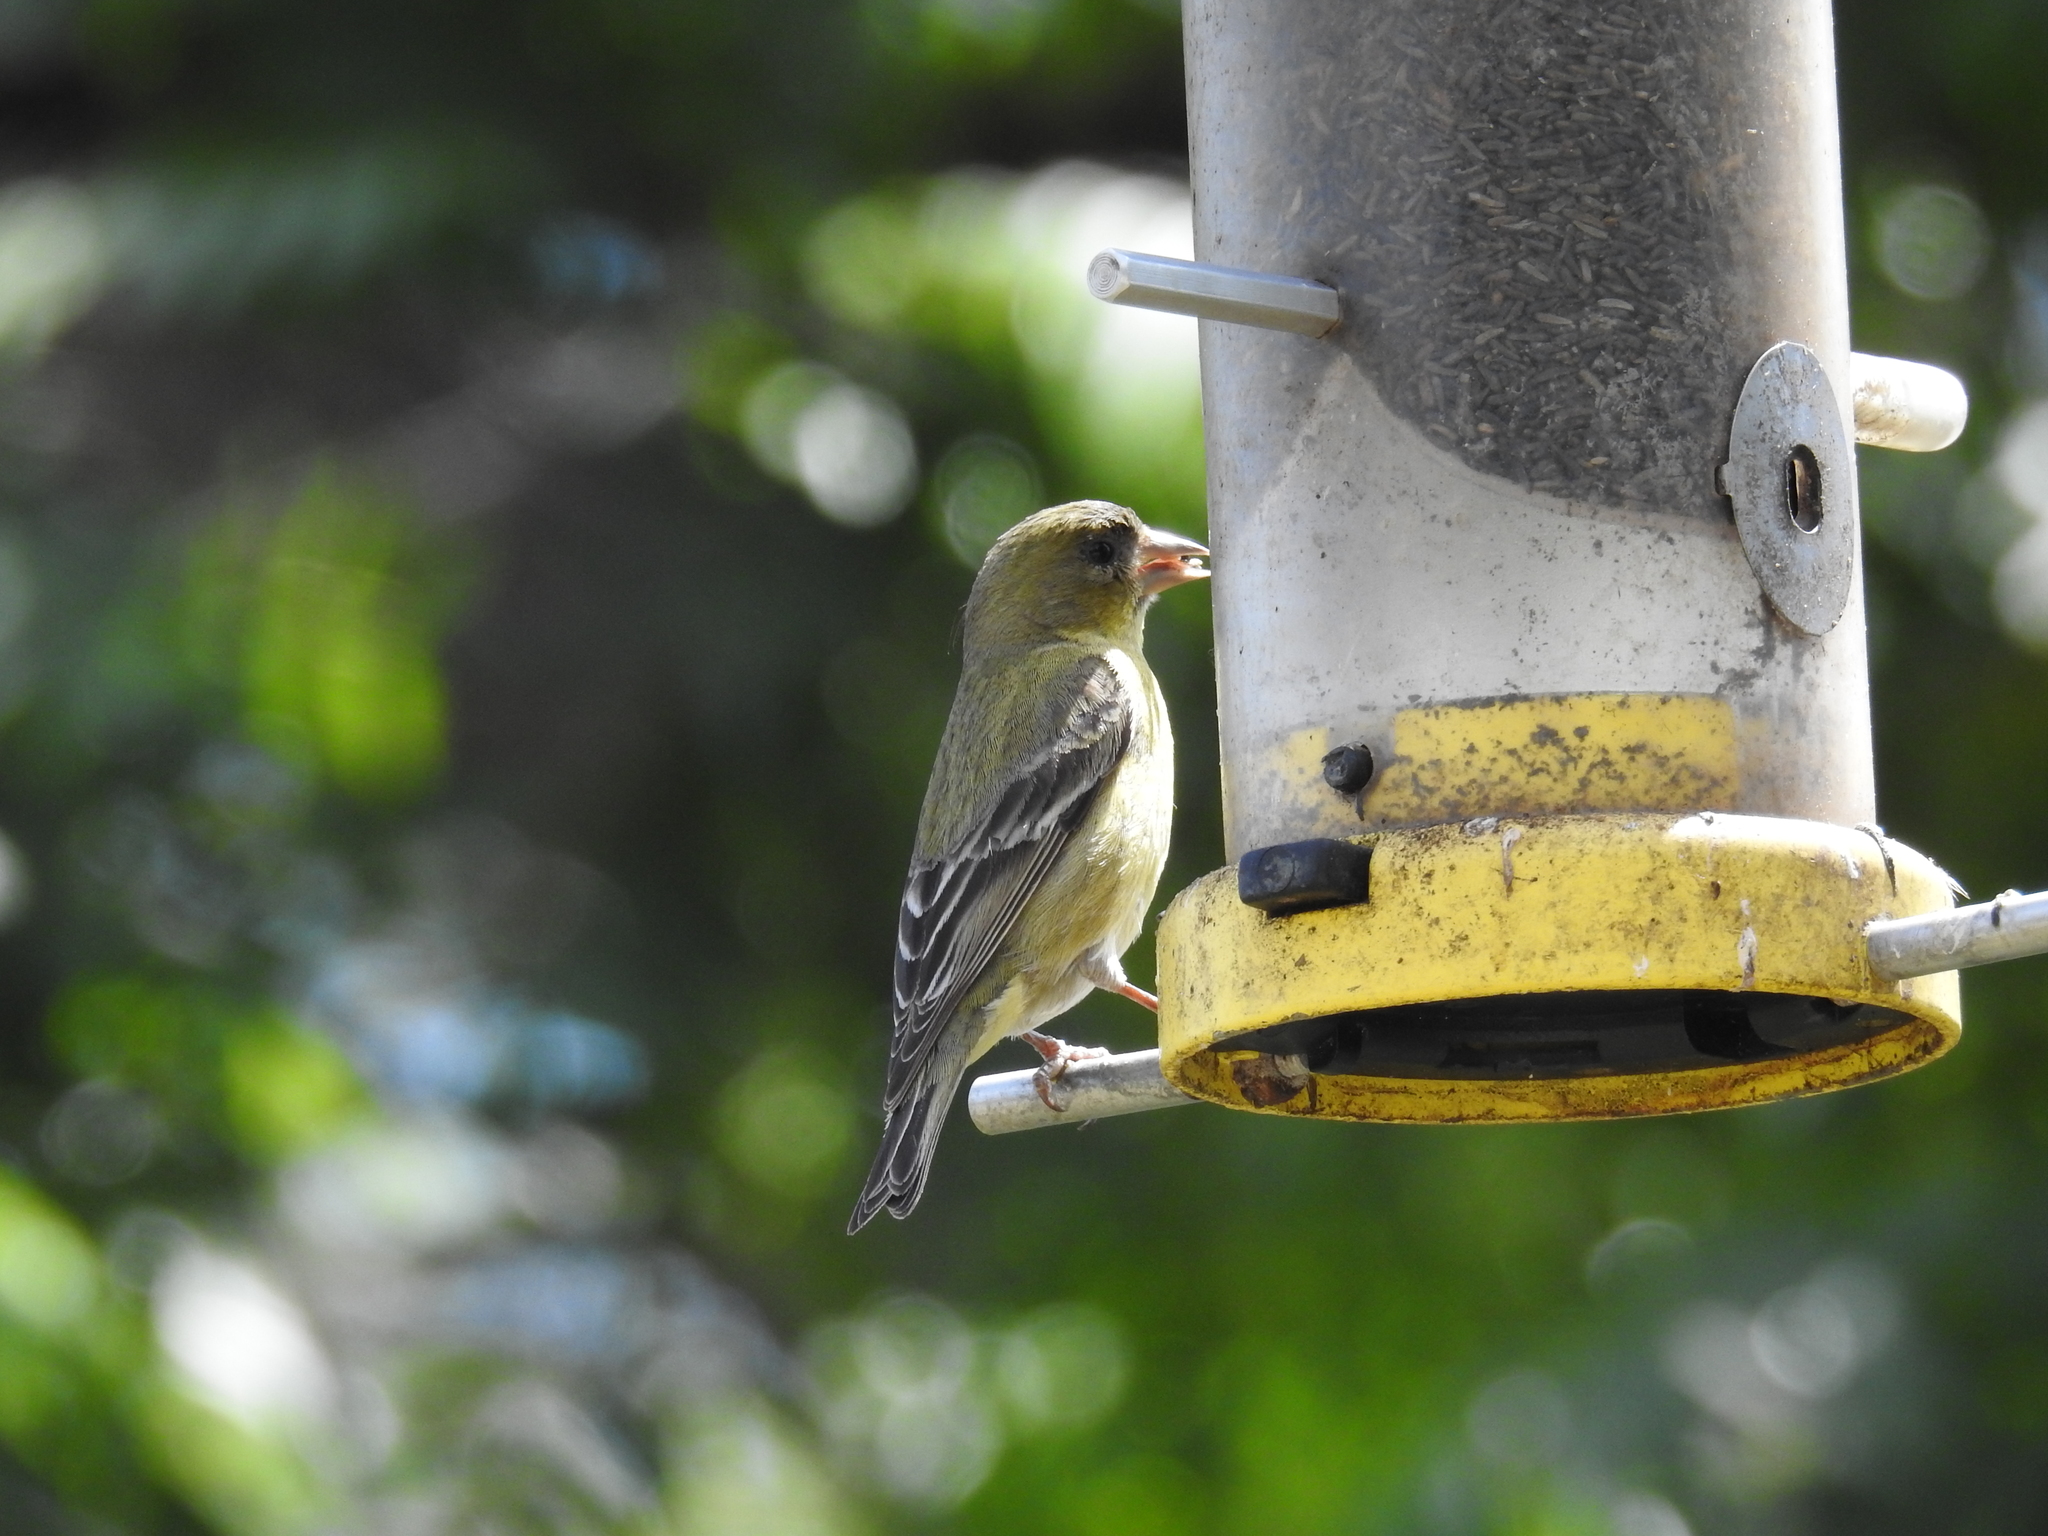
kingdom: Animalia
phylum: Chordata
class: Aves
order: Passeriformes
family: Fringillidae
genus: Spinus
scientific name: Spinus psaltria
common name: Lesser goldfinch
